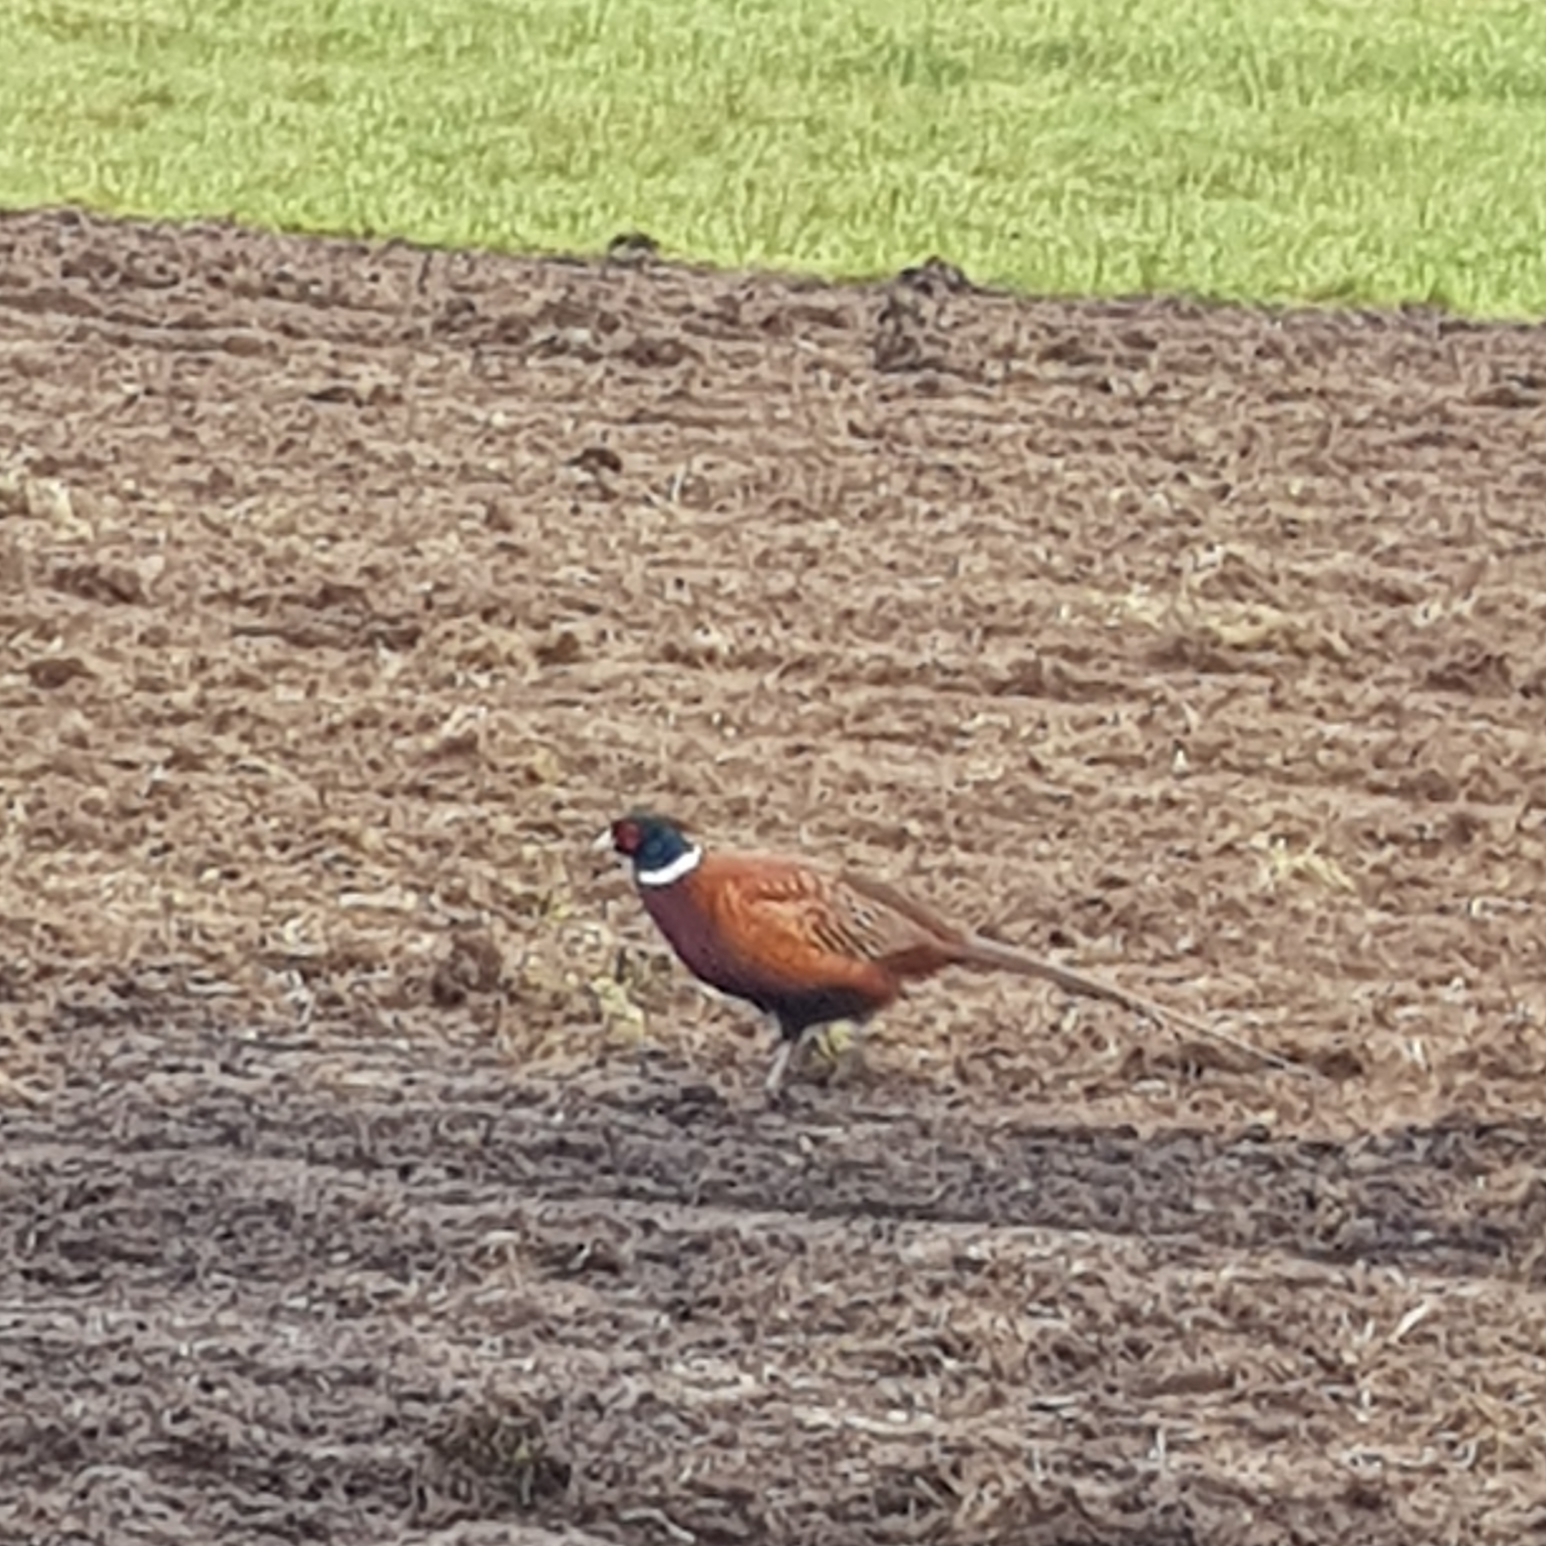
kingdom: Animalia
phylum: Chordata
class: Aves
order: Galliformes
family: Phasianidae
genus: Phasianus
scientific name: Phasianus colchicus
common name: Common pheasant
